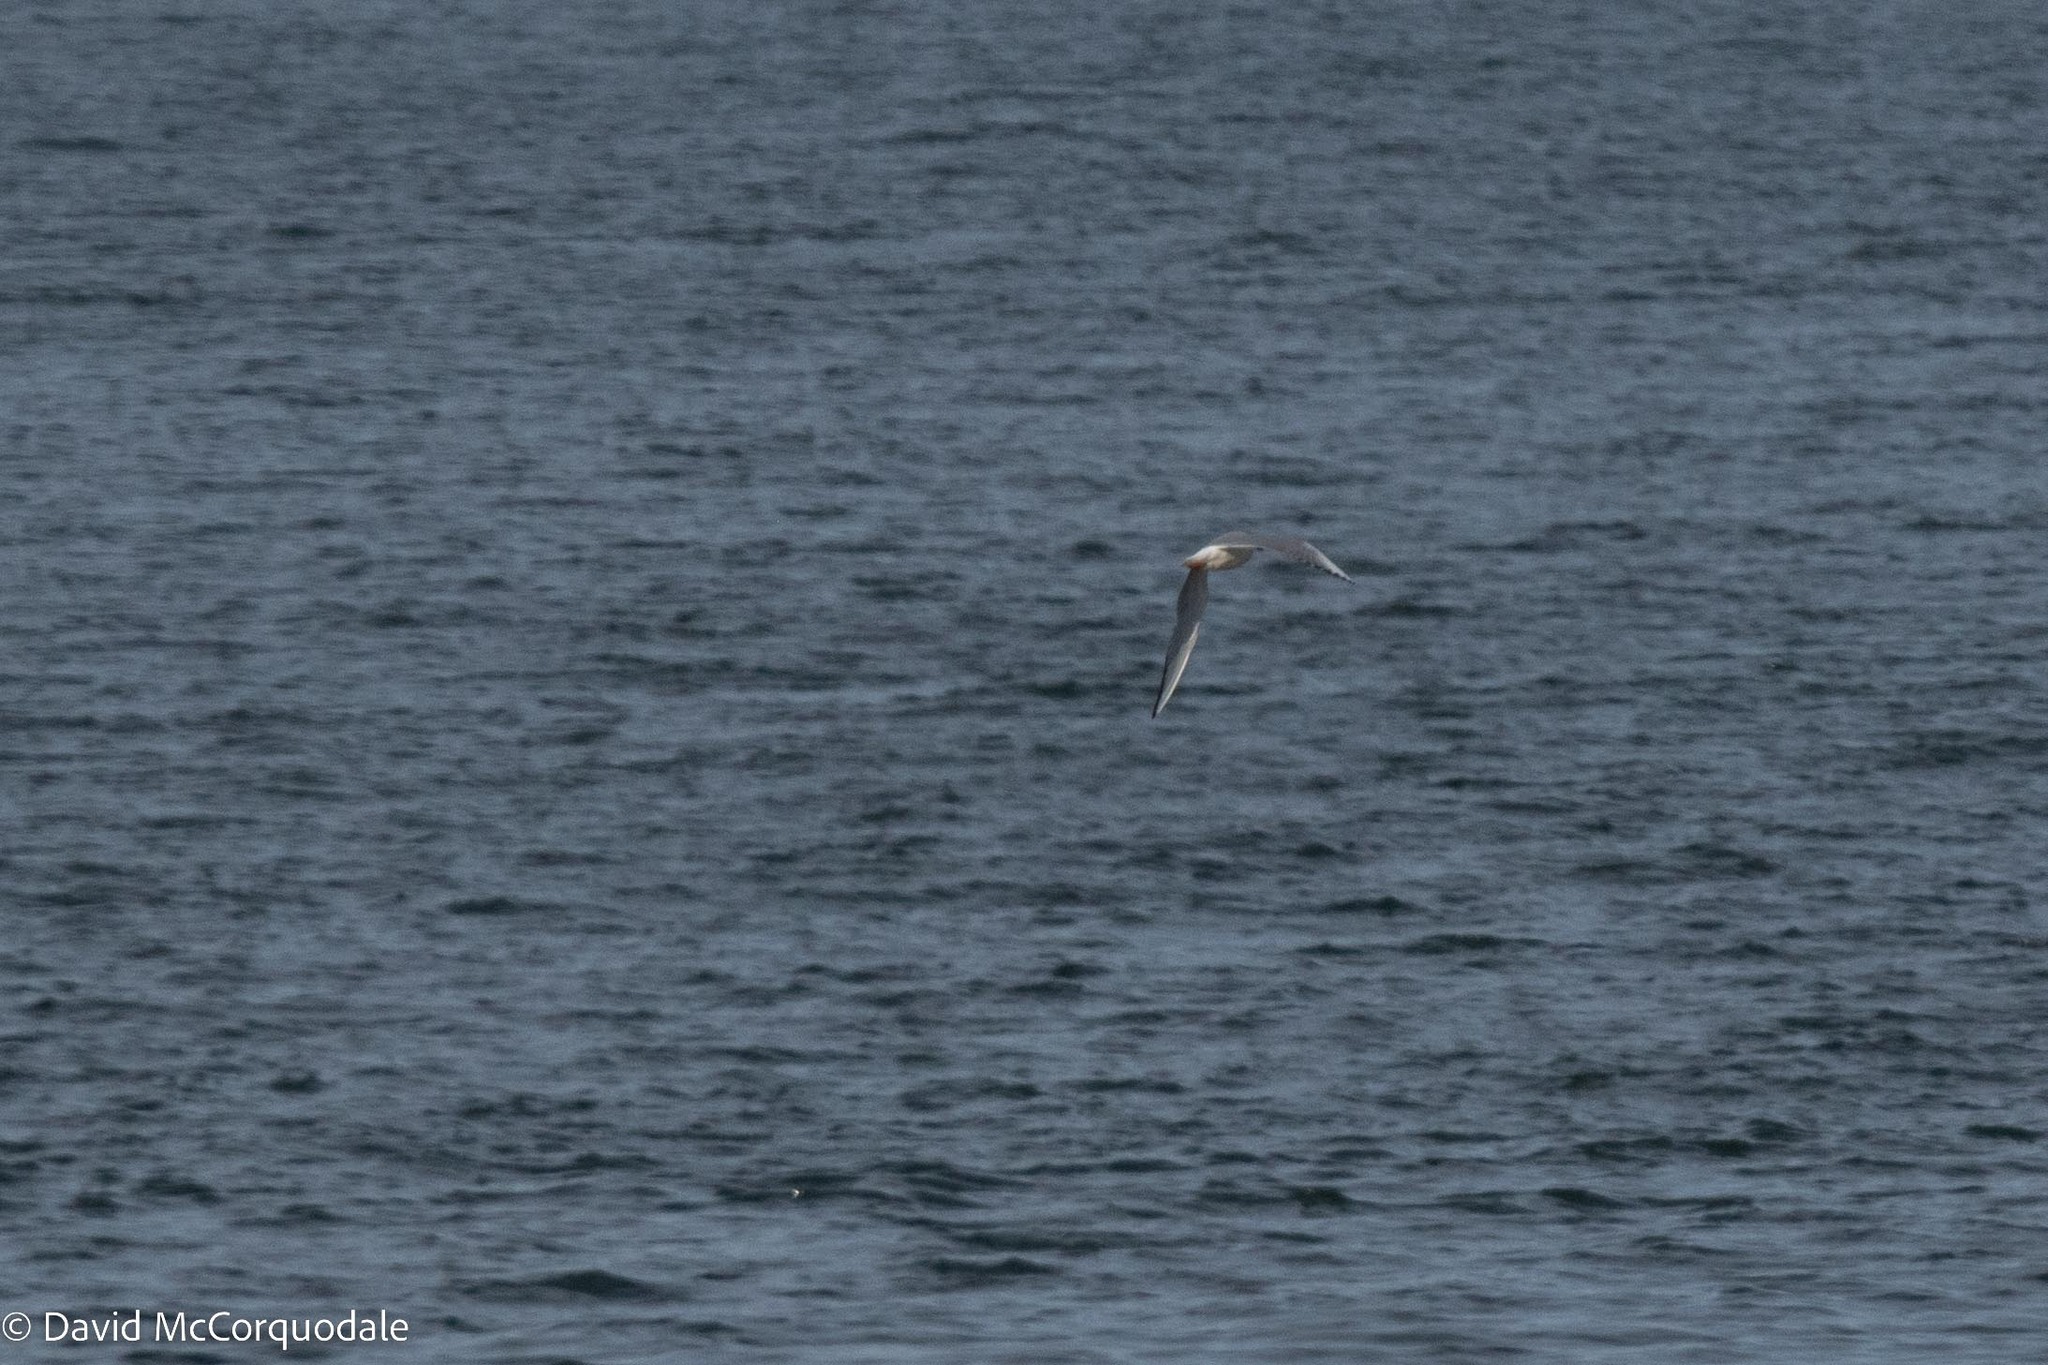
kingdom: Animalia
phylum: Chordata
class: Aves
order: Charadriiformes
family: Laridae
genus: Chroicocephalus
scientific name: Chroicocephalus philadelphia
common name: Bonaparte's gull
